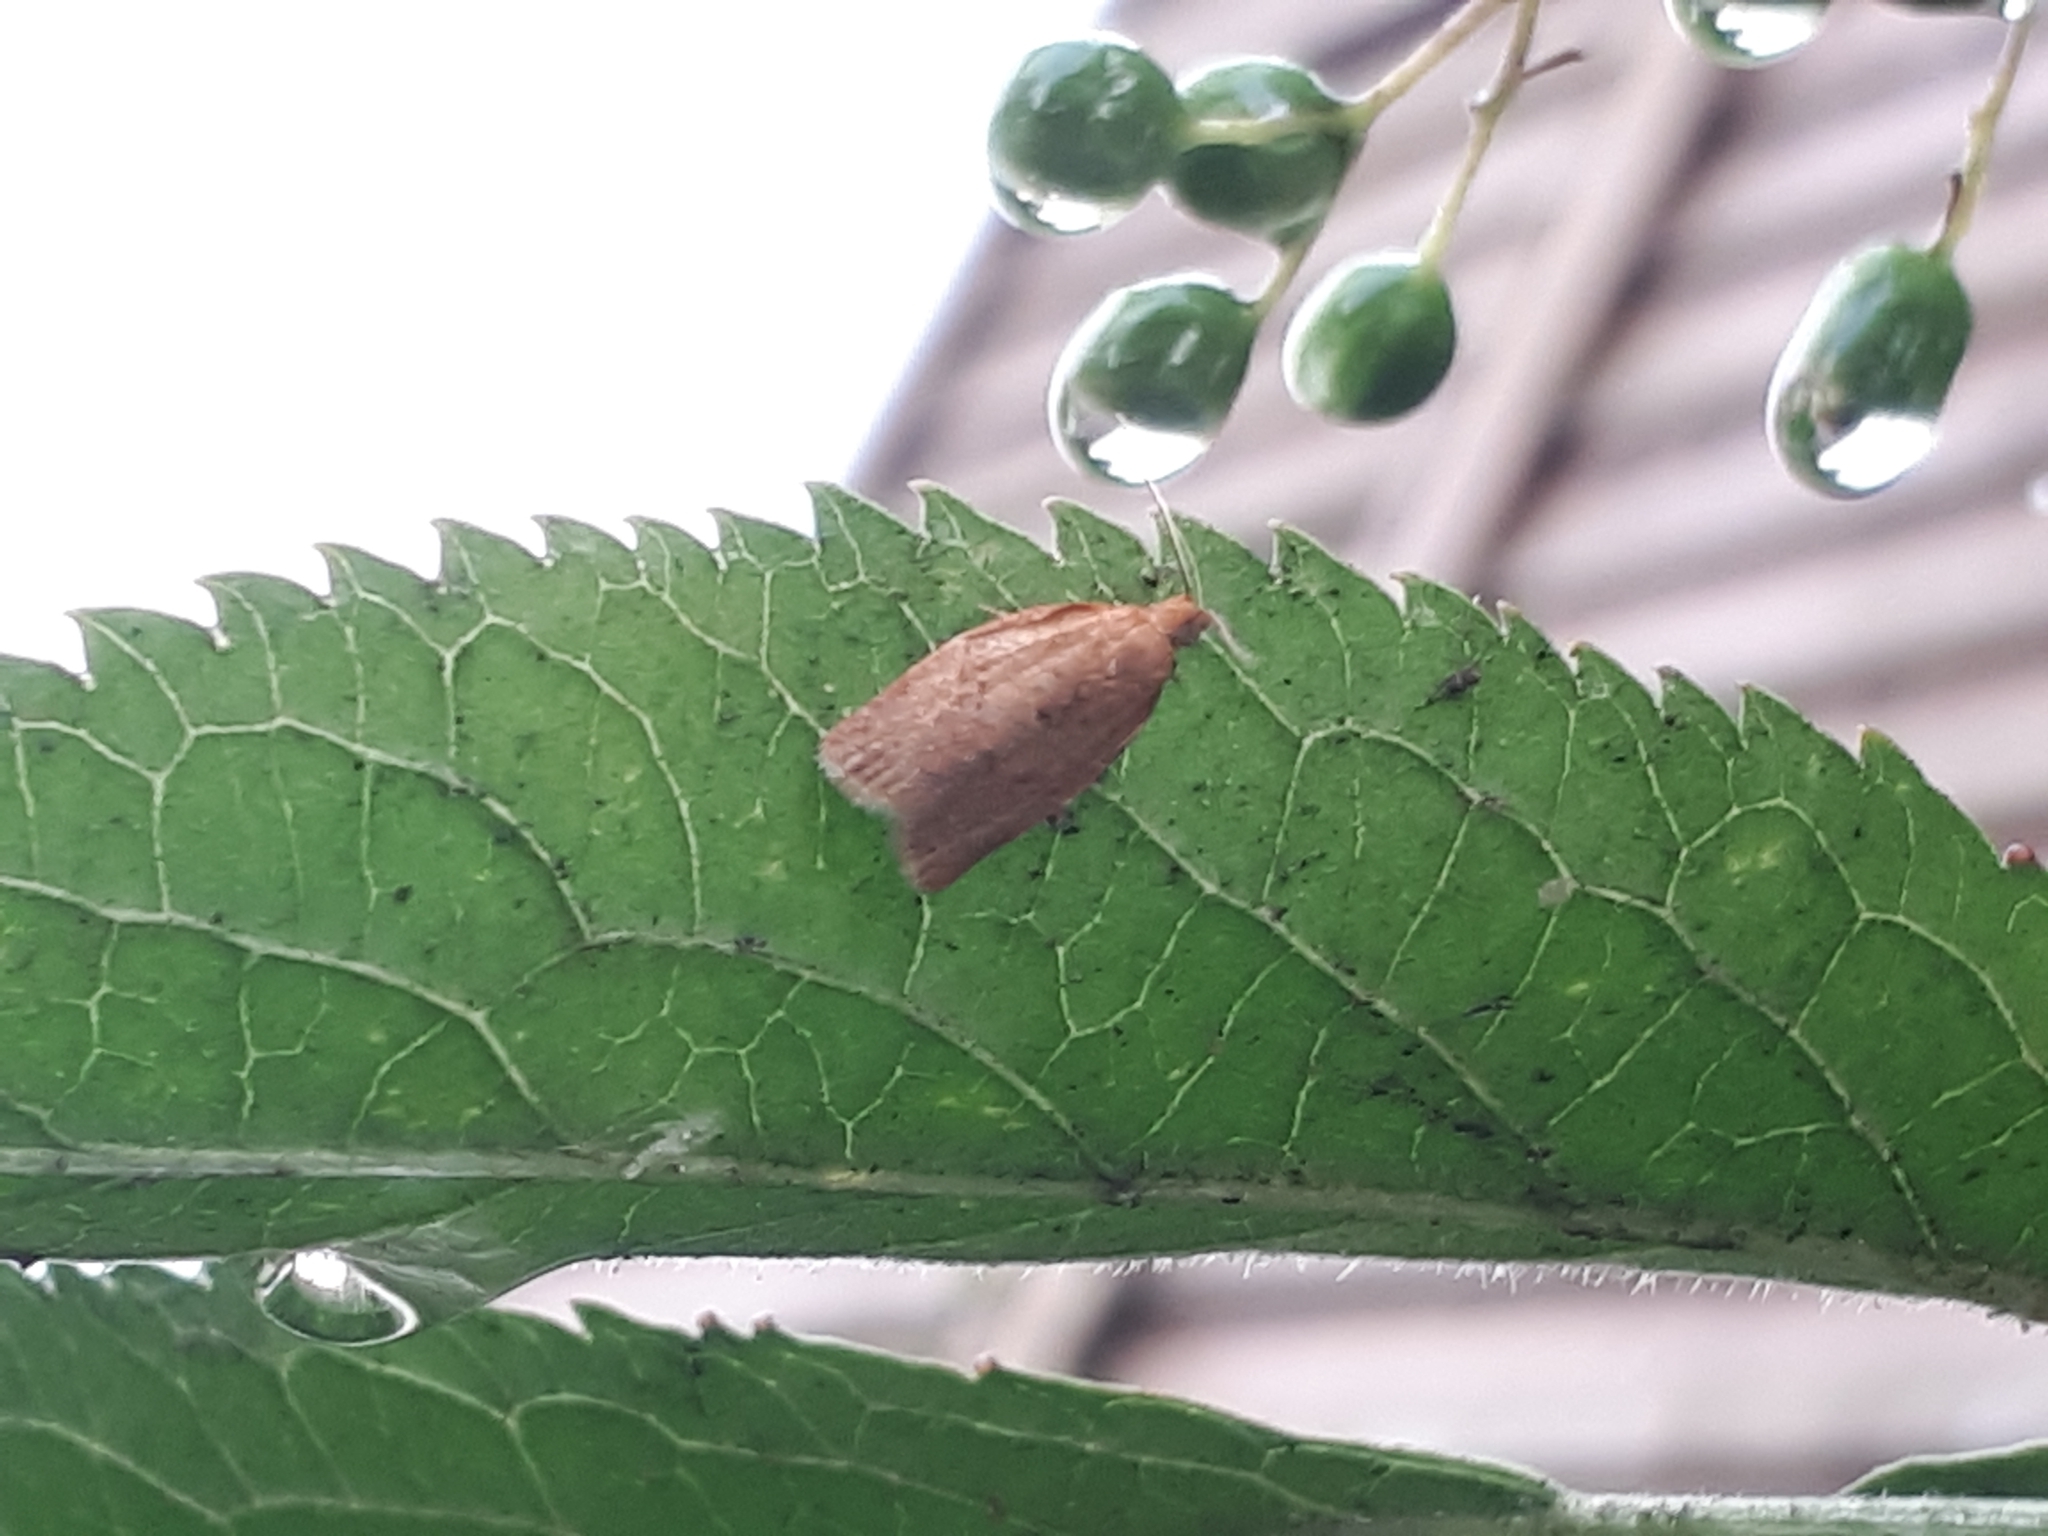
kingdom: Animalia
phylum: Arthropoda
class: Insecta
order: Lepidoptera
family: Tortricidae
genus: Clepsis
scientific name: Clepsis consimilana
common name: Privet tortrix
